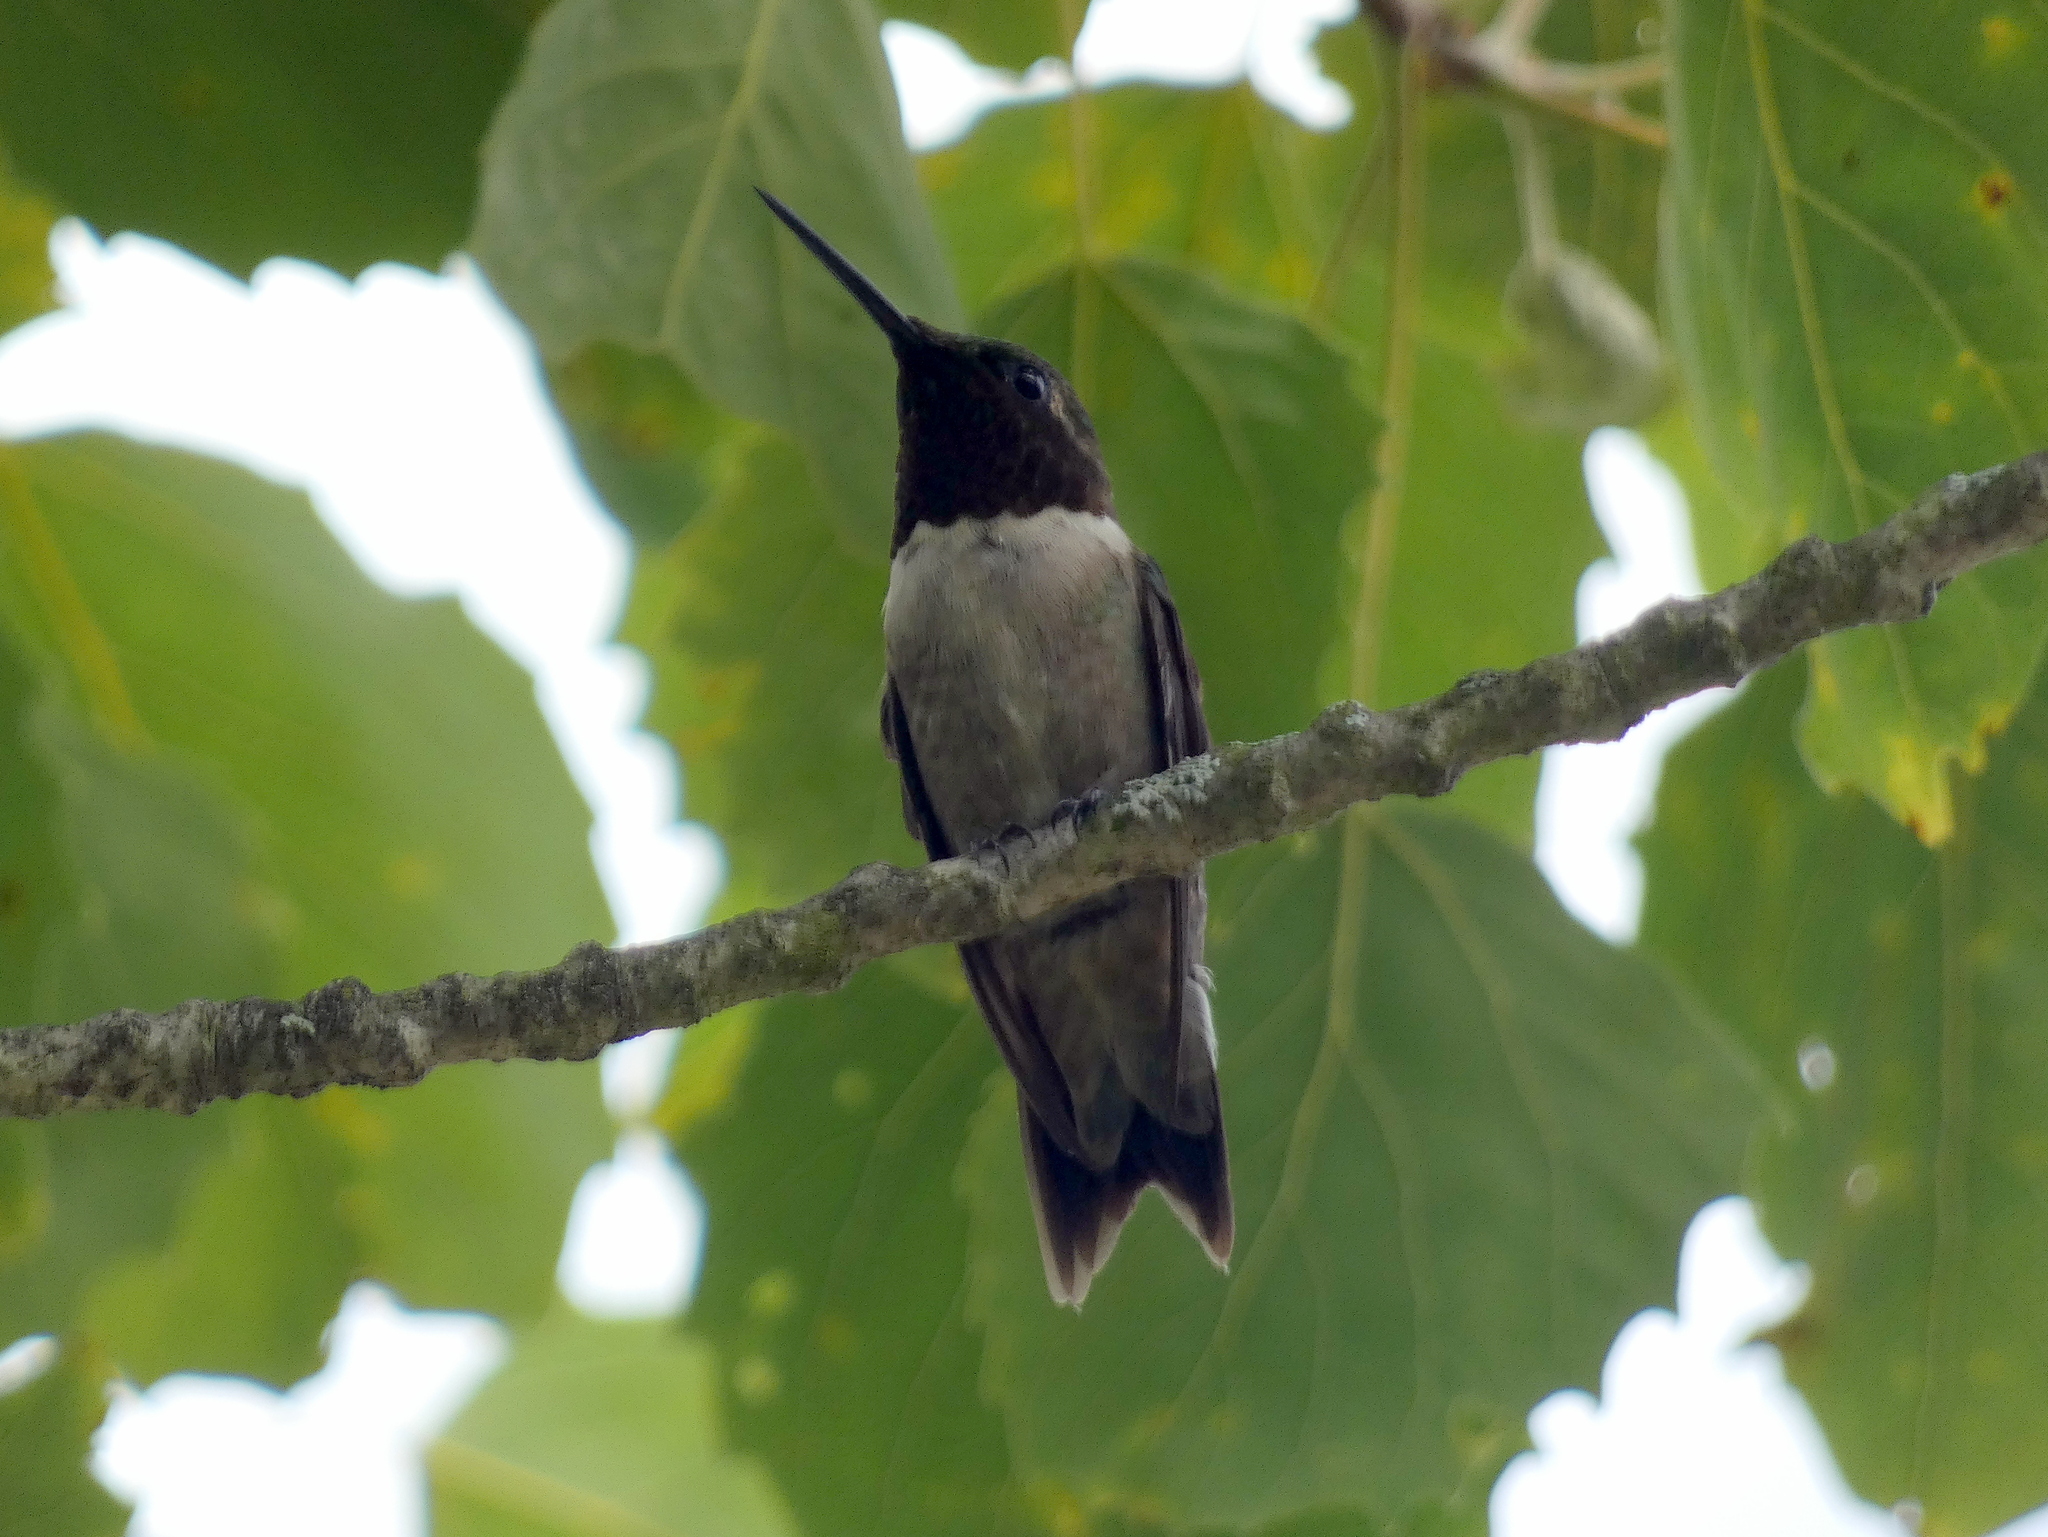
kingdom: Animalia
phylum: Chordata
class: Aves
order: Apodiformes
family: Trochilidae
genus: Archilochus
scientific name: Archilochus colubris
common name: Ruby-throated hummingbird
